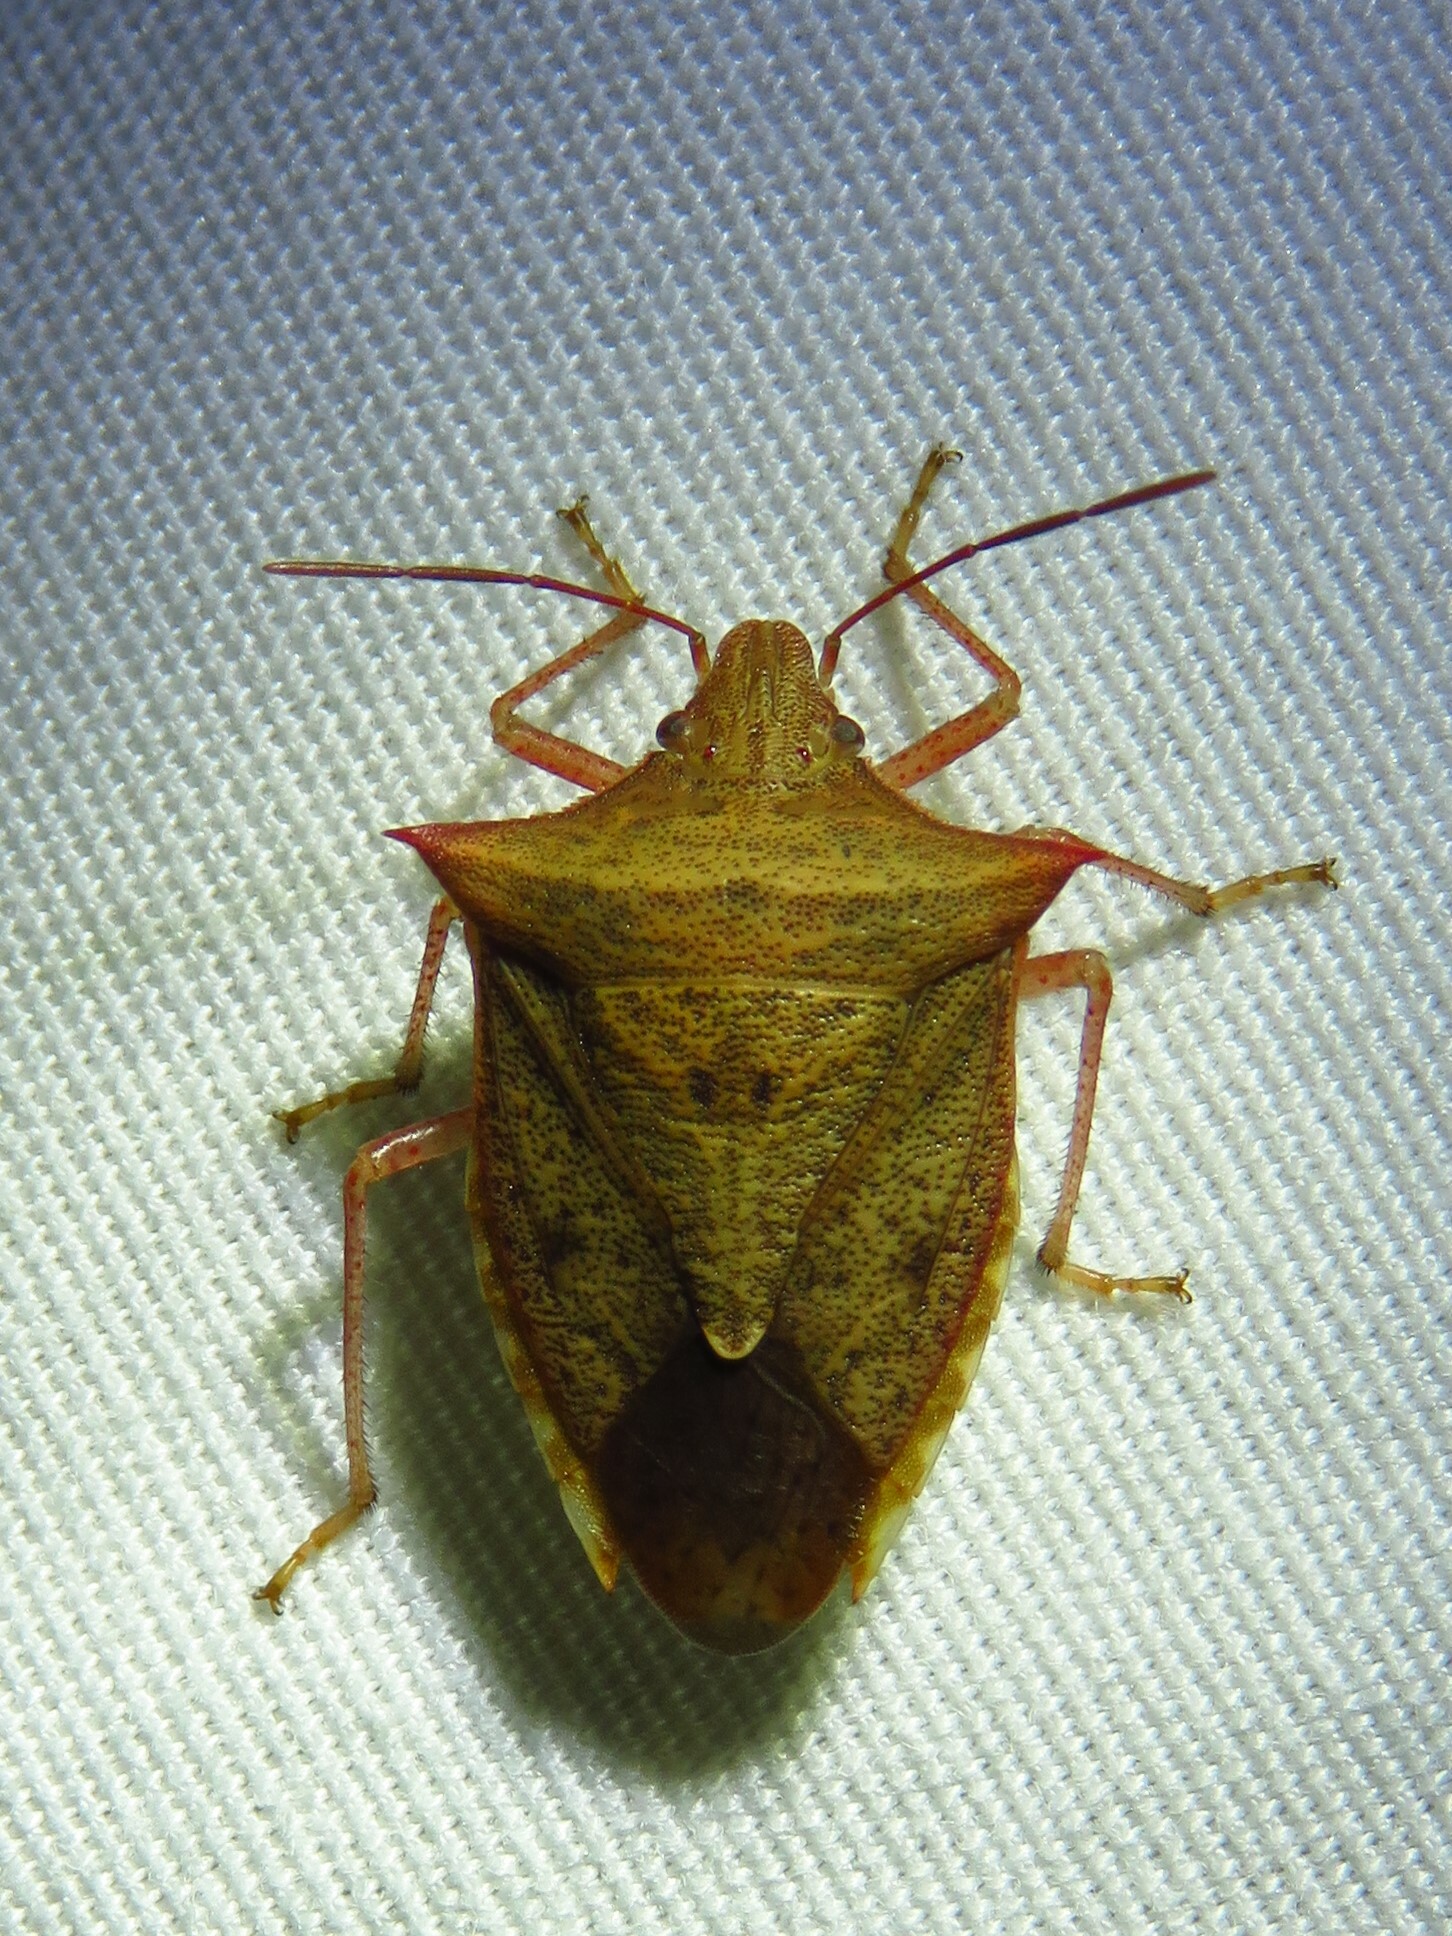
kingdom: Animalia
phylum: Arthropoda
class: Insecta
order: Hemiptera
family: Pentatomidae
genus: Euschistus
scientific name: Euschistus ictericus
